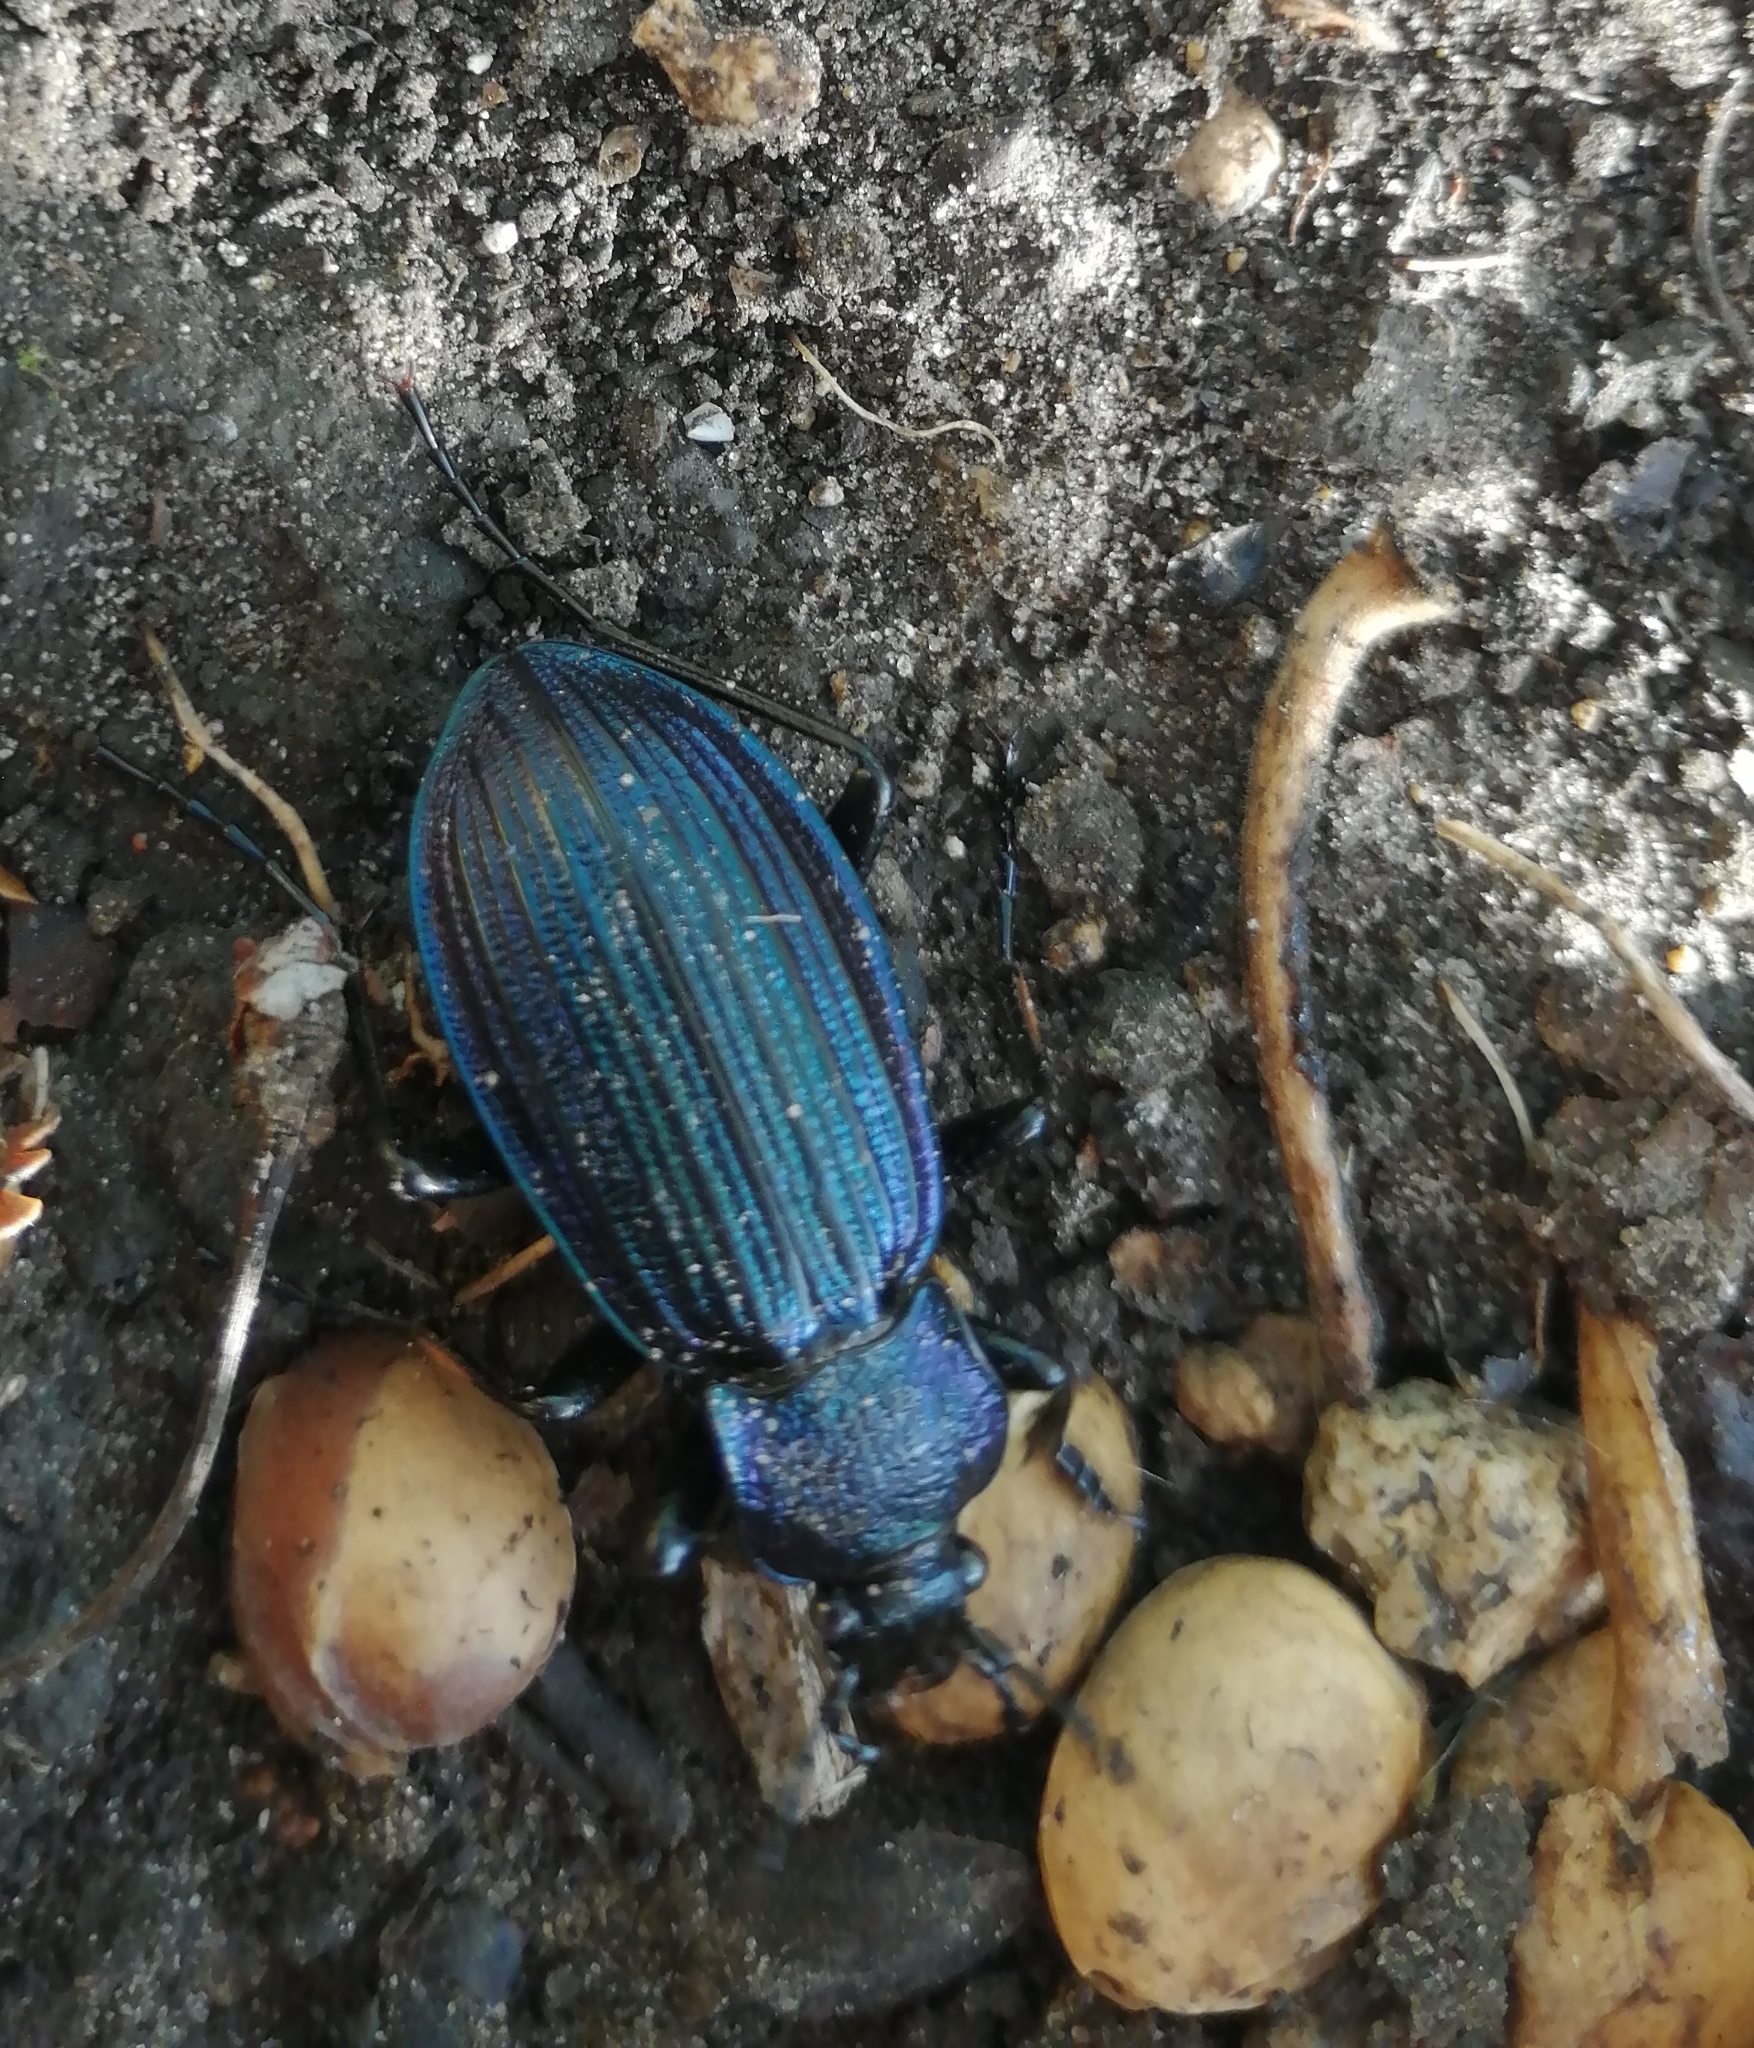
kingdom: Animalia
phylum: Arthropoda
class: Insecta
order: Coleoptera
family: Carabidae
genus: Carabus
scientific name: Carabus exaratus
